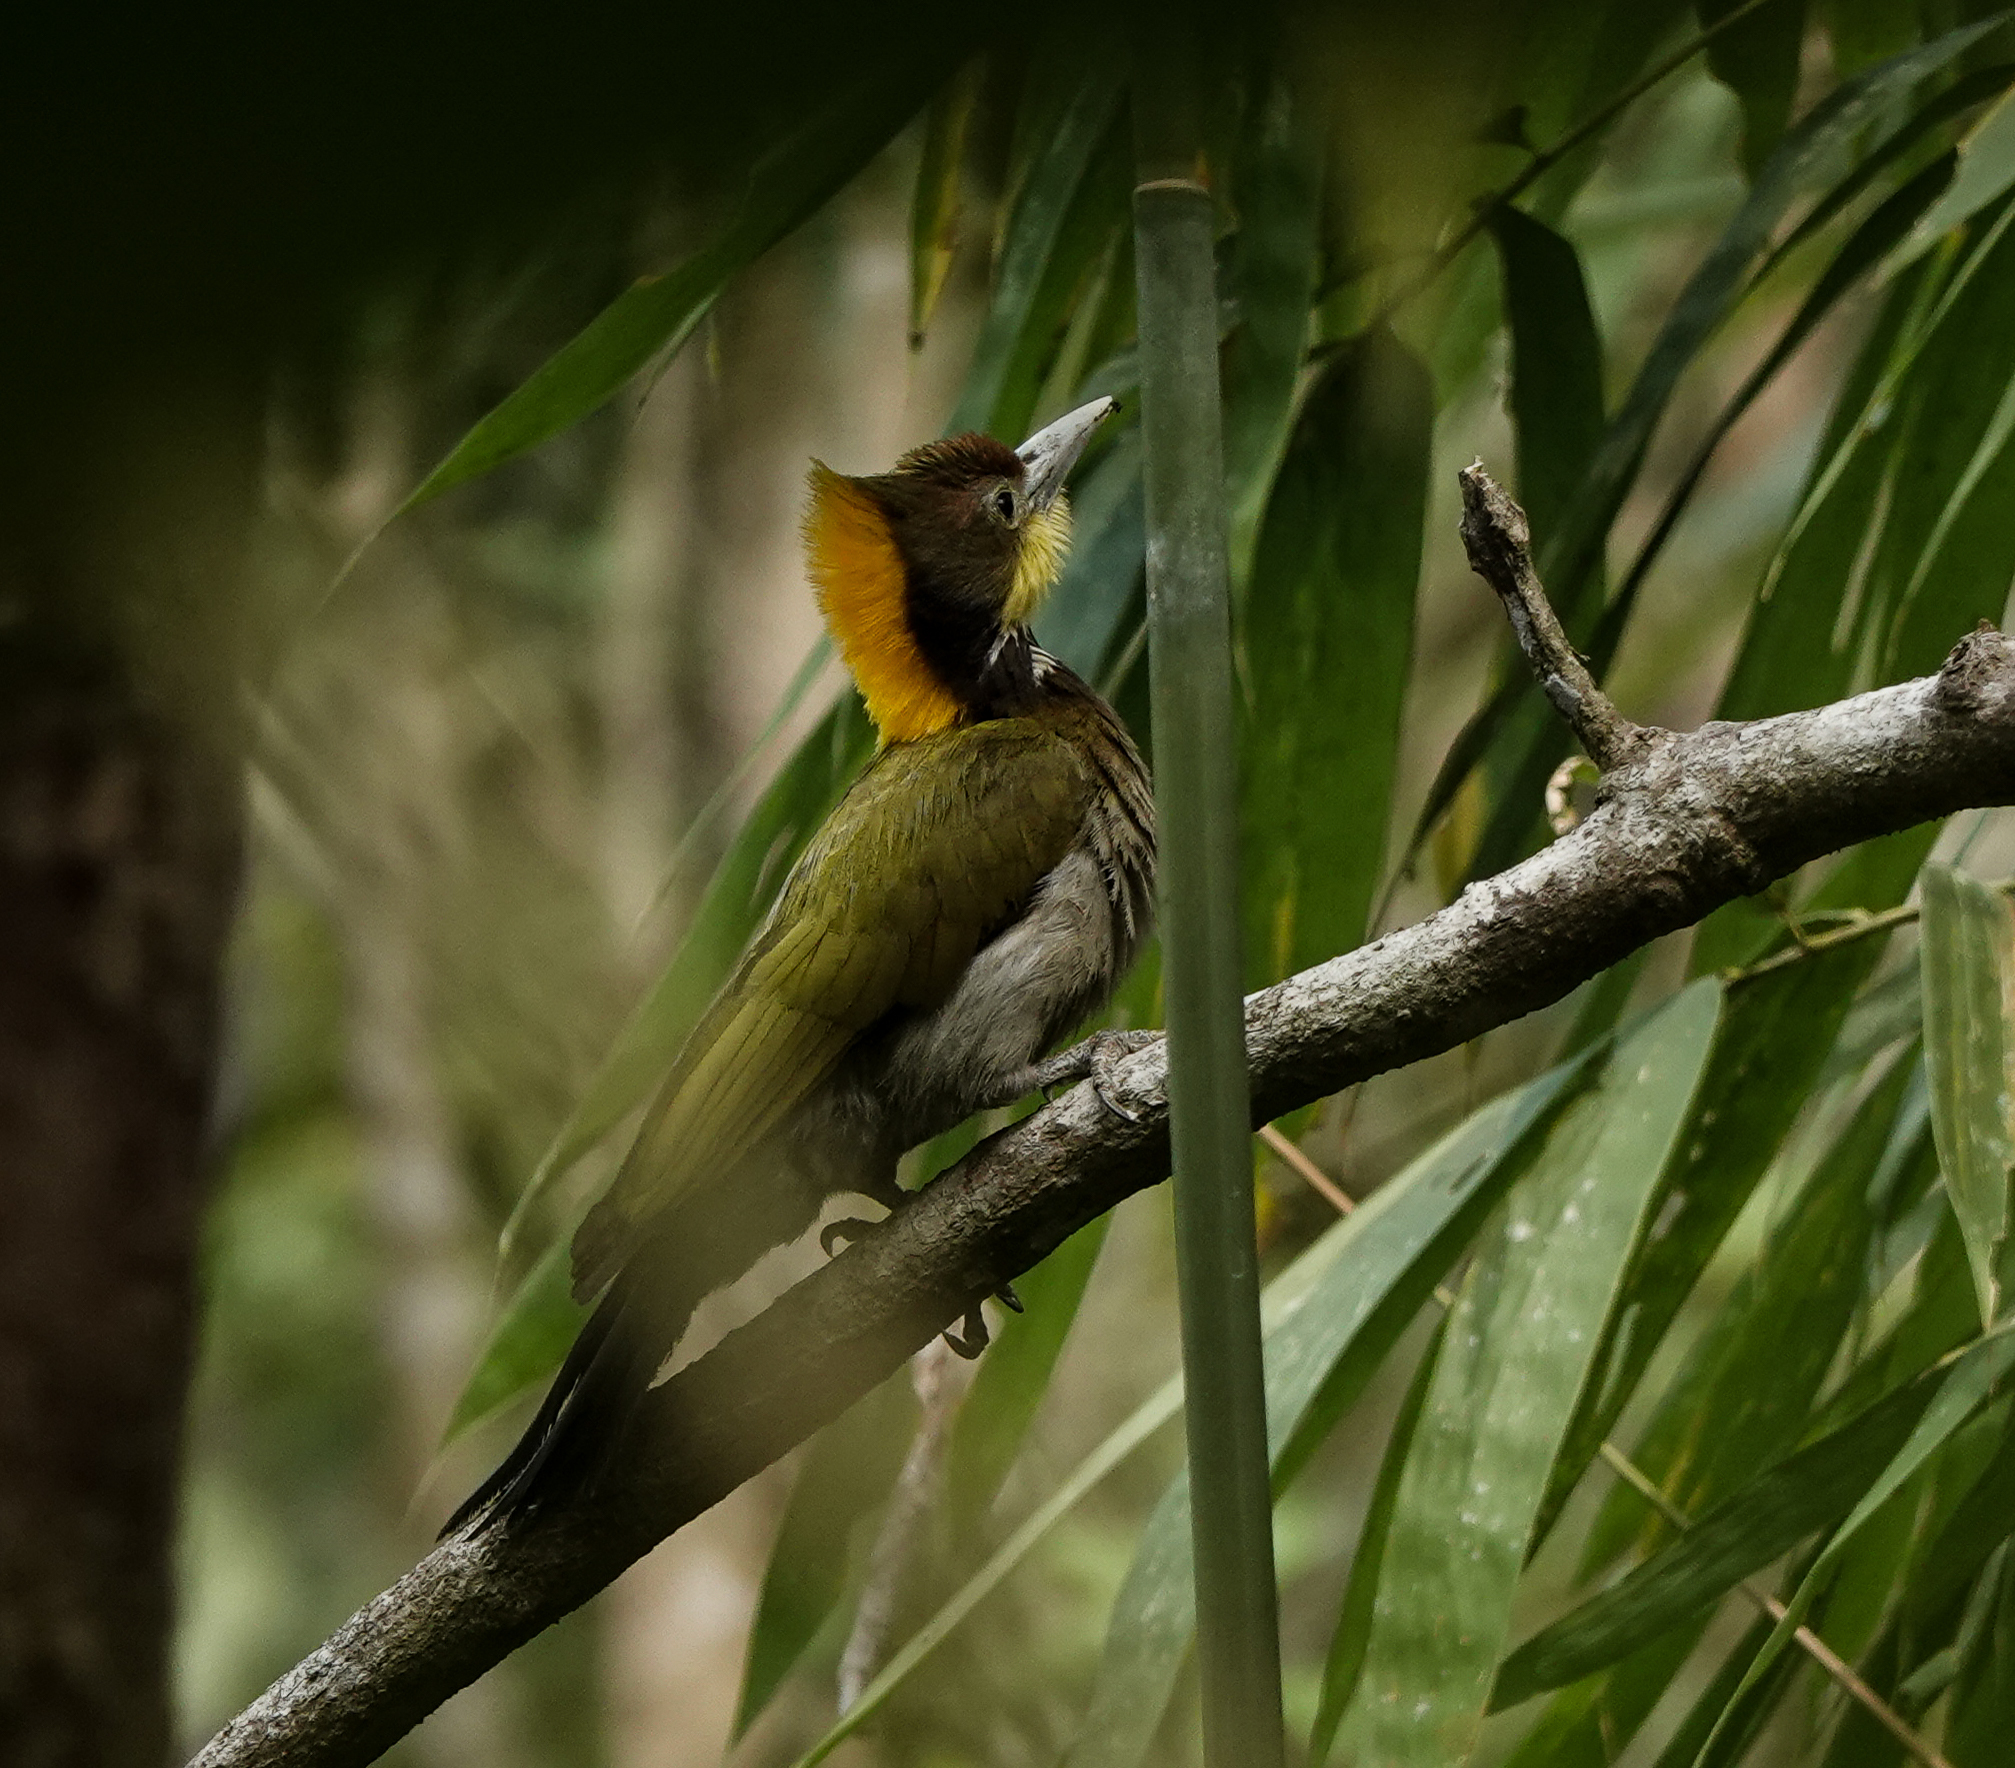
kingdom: Animalia
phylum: Chordata
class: Aves
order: Piciformes
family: Picidae
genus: Chrysophlegma
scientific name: Chrysophlegma flavinucha
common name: Greater yellownape
